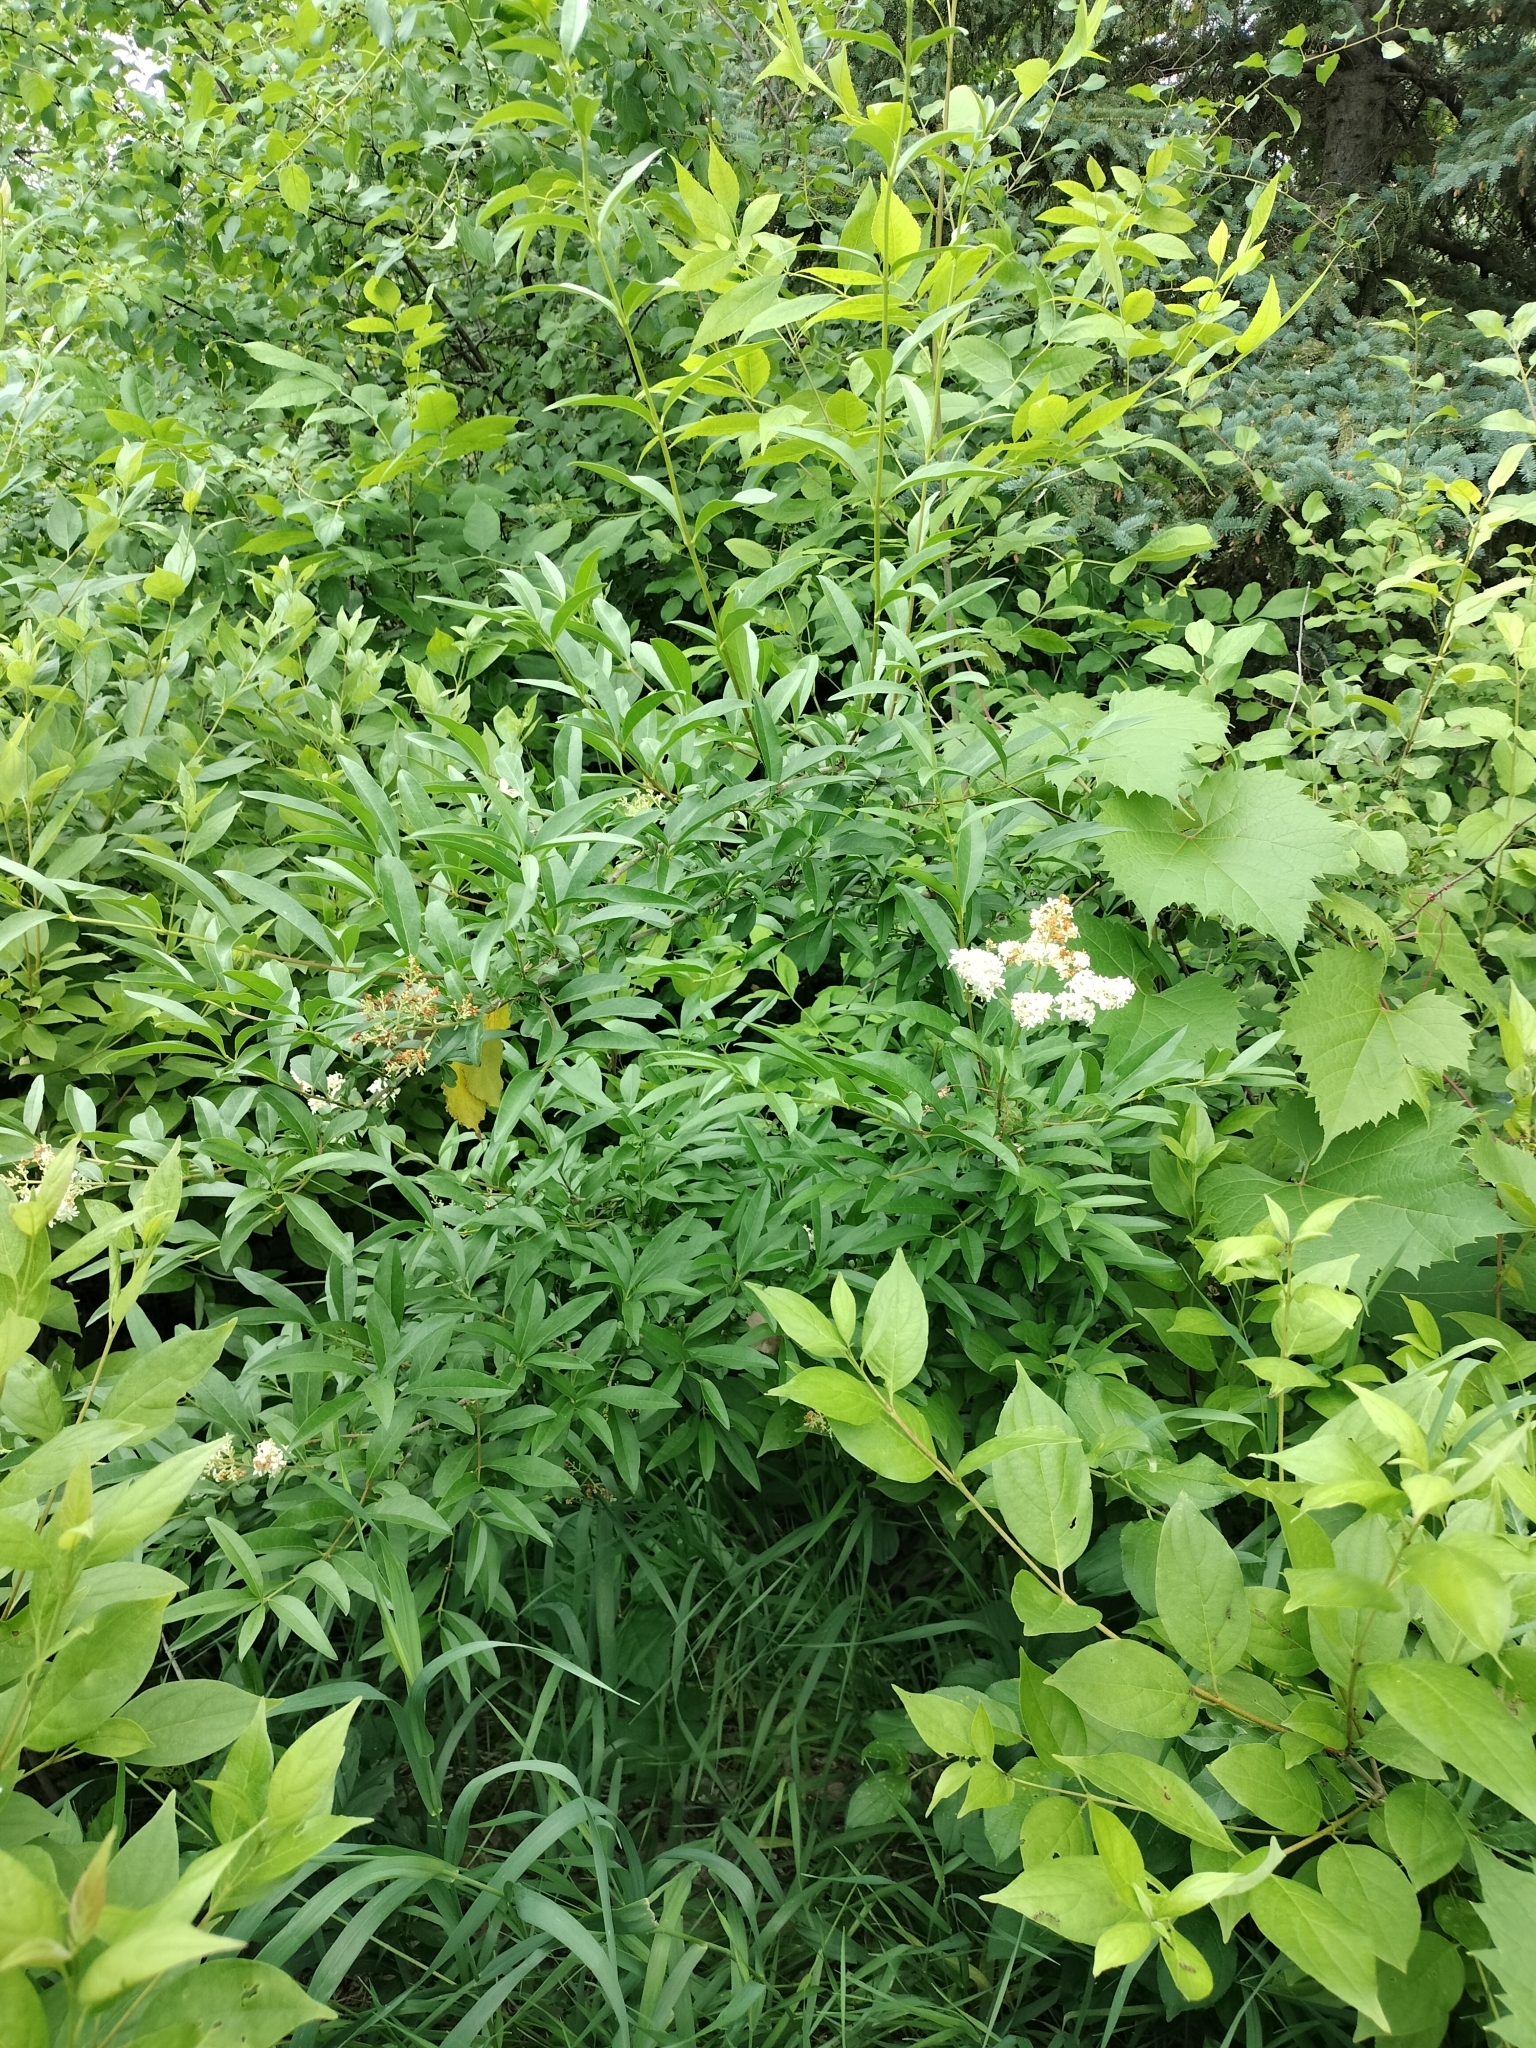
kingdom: Plantae
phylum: Tracheophyta
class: Magnoliopsida
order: Lamiales
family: Oleaceae
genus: Ligustrum
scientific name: Ligustrum vulgare
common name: Wild privet
